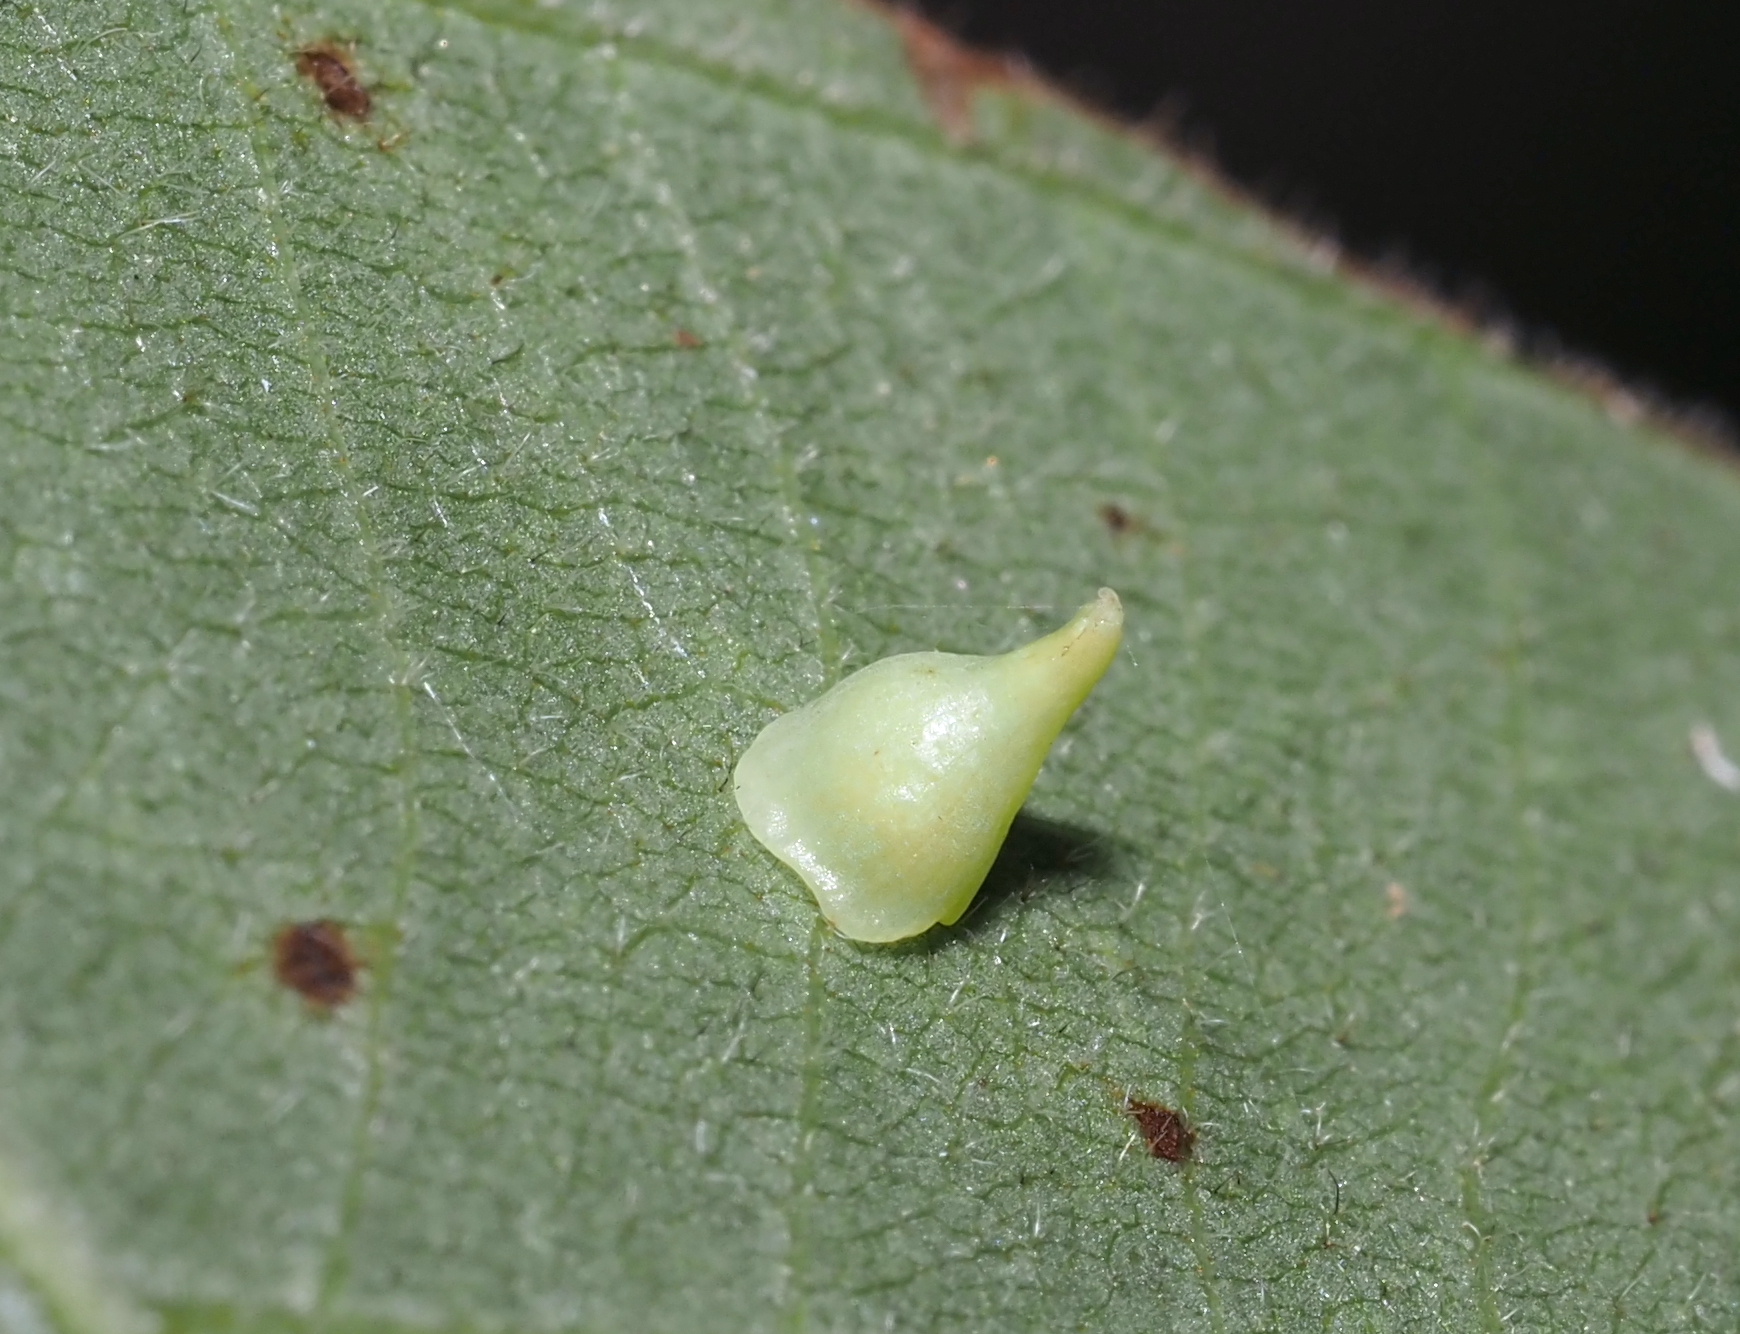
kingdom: Animalia
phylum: Arthropoda
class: Insecta
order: Diptera
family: Cecidomyiidae
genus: Caryomyia
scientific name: Caryomyia sanguinolenta
